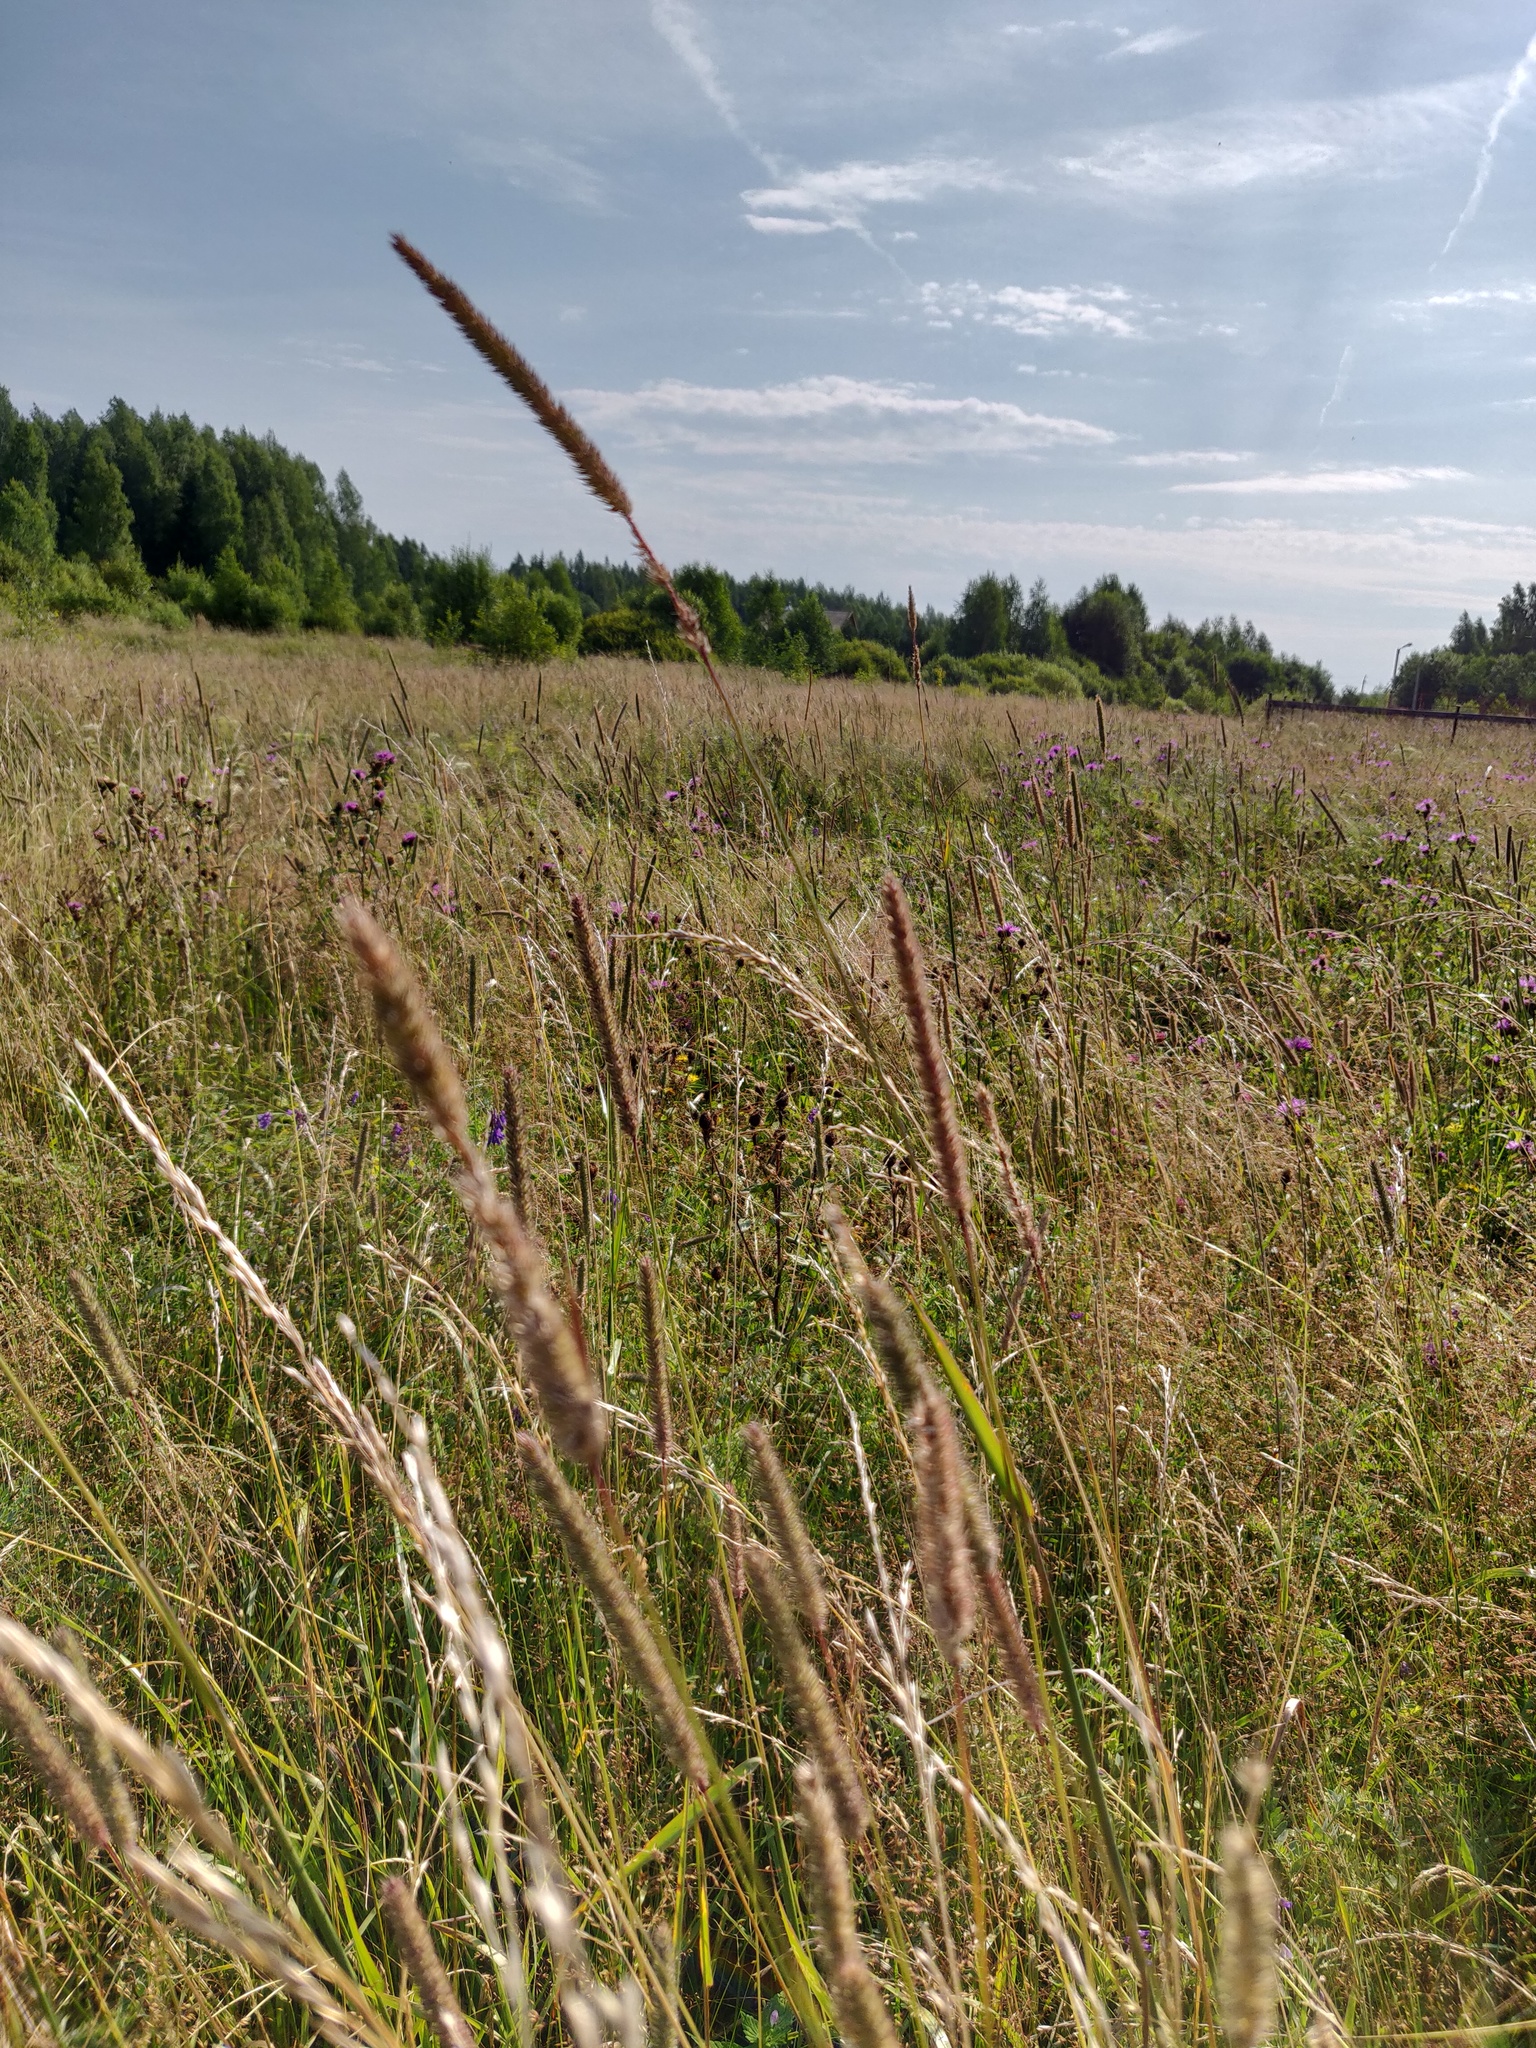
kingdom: Plantae
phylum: Tracheophyta
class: Liliopsida
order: Poales
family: Poaceae
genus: Phleum
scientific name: Phleum pratense
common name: Timothy grass
